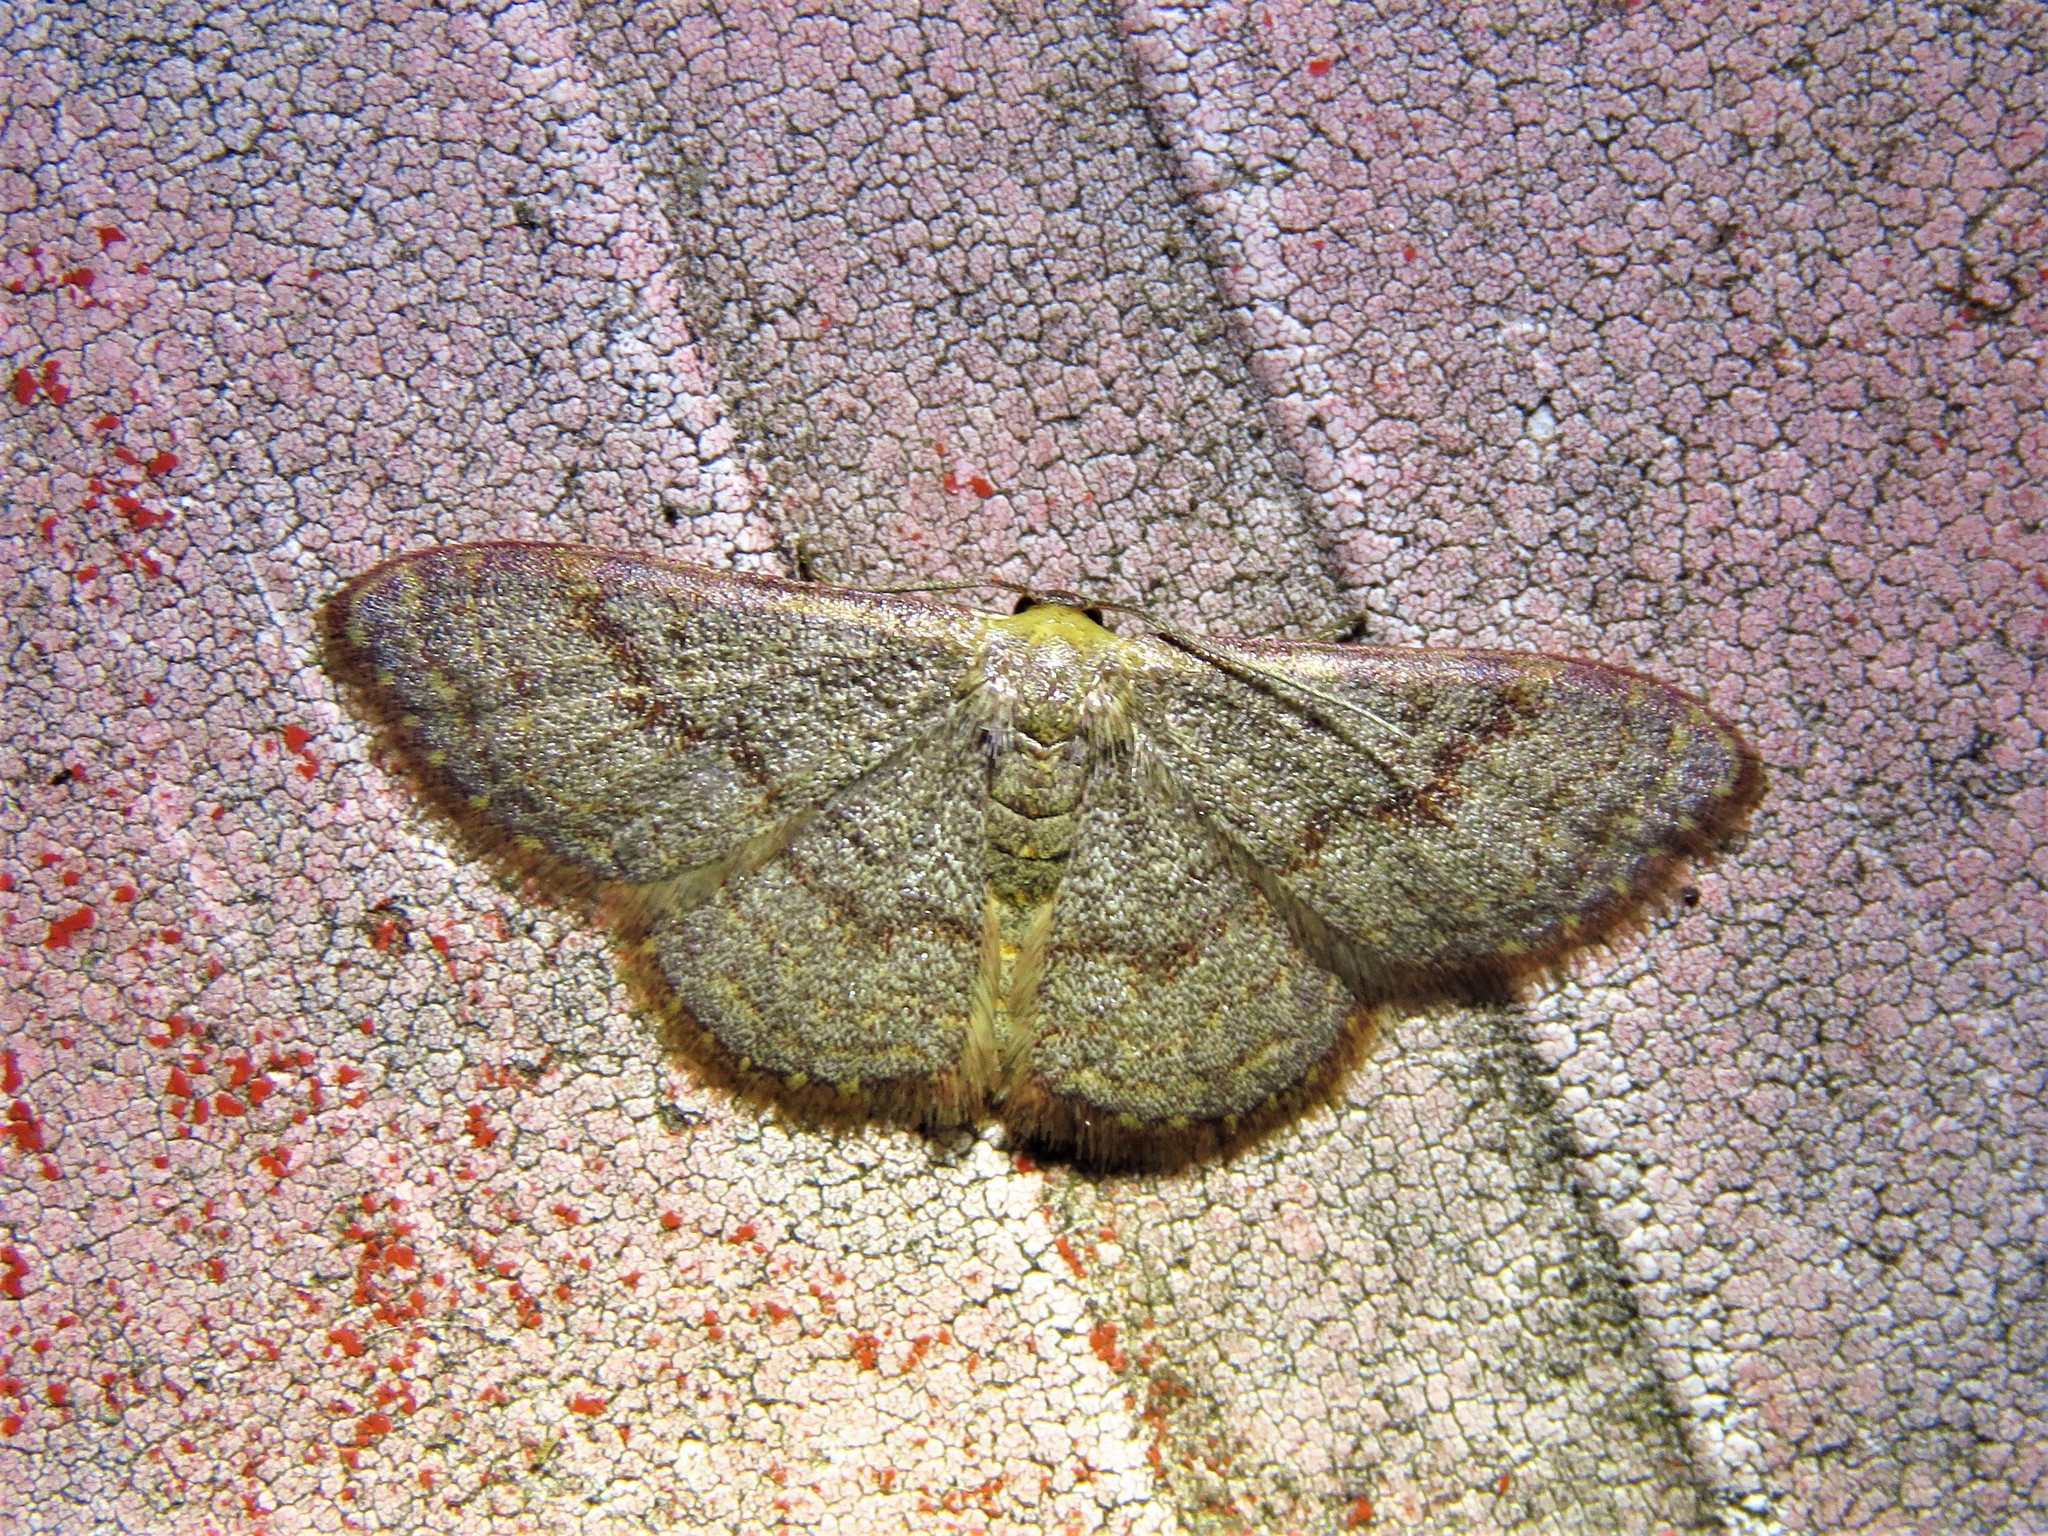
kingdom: Animalia
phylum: Arthropoda
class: Insecta
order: Lepidoptera
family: Geometridae
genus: Leptostales
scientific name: Leptostales pannaria
